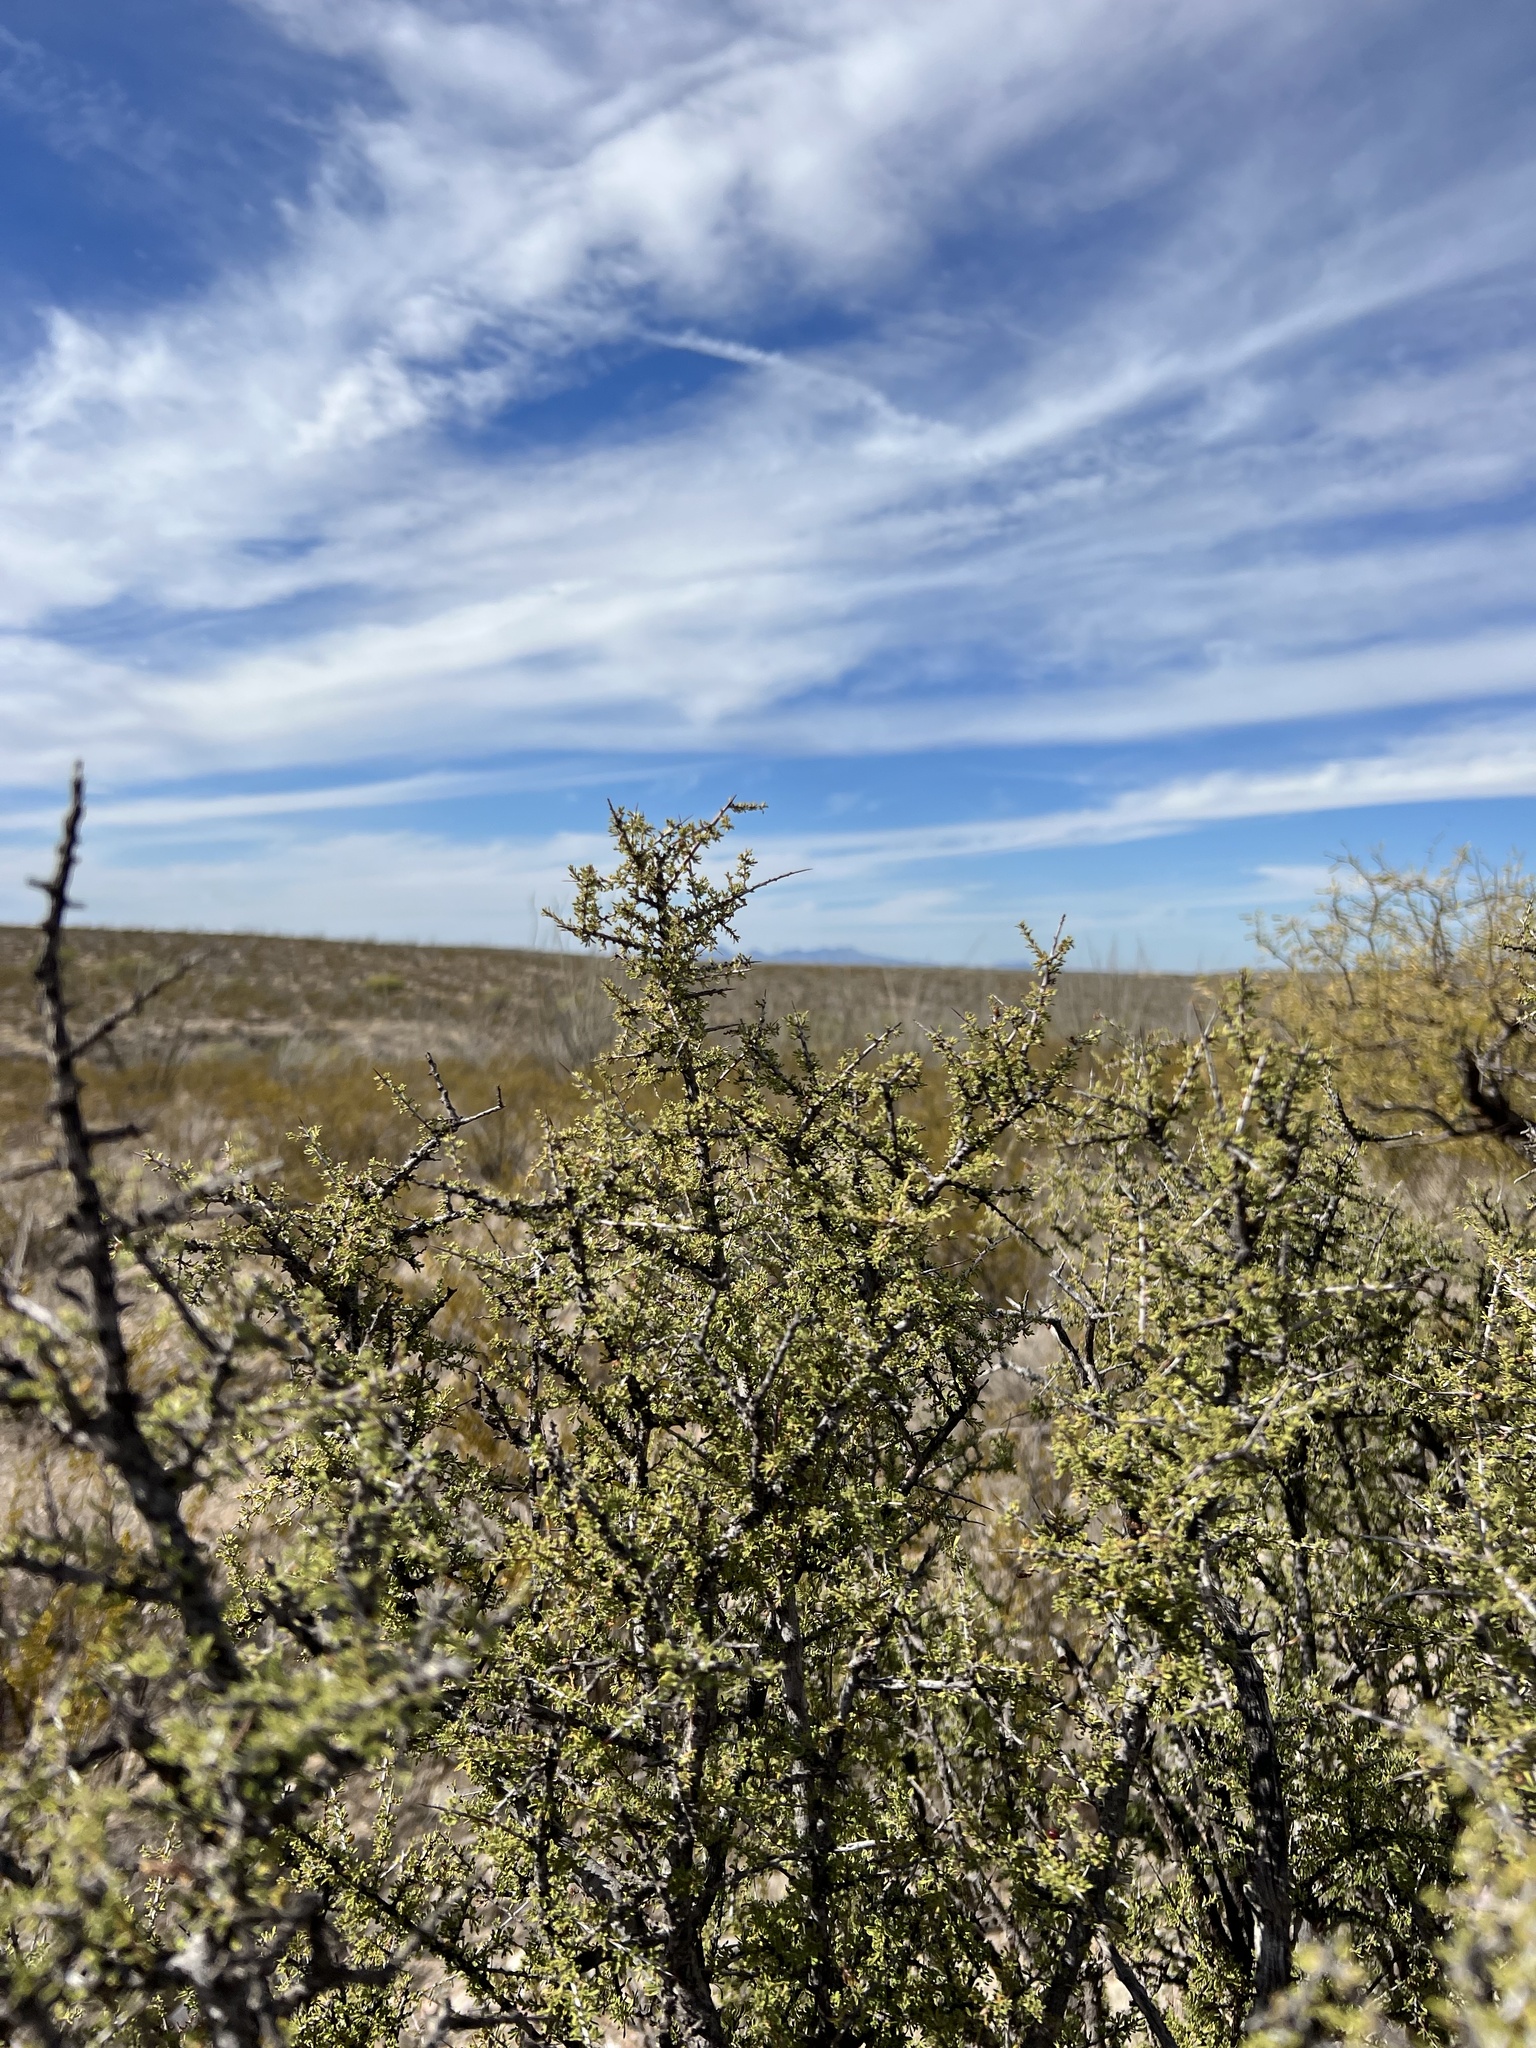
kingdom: Plantae
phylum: Tracheophyta
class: Magnoliopsida
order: Rosales
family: Rhamnaceae
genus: Condalia
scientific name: Condalia warnockii
